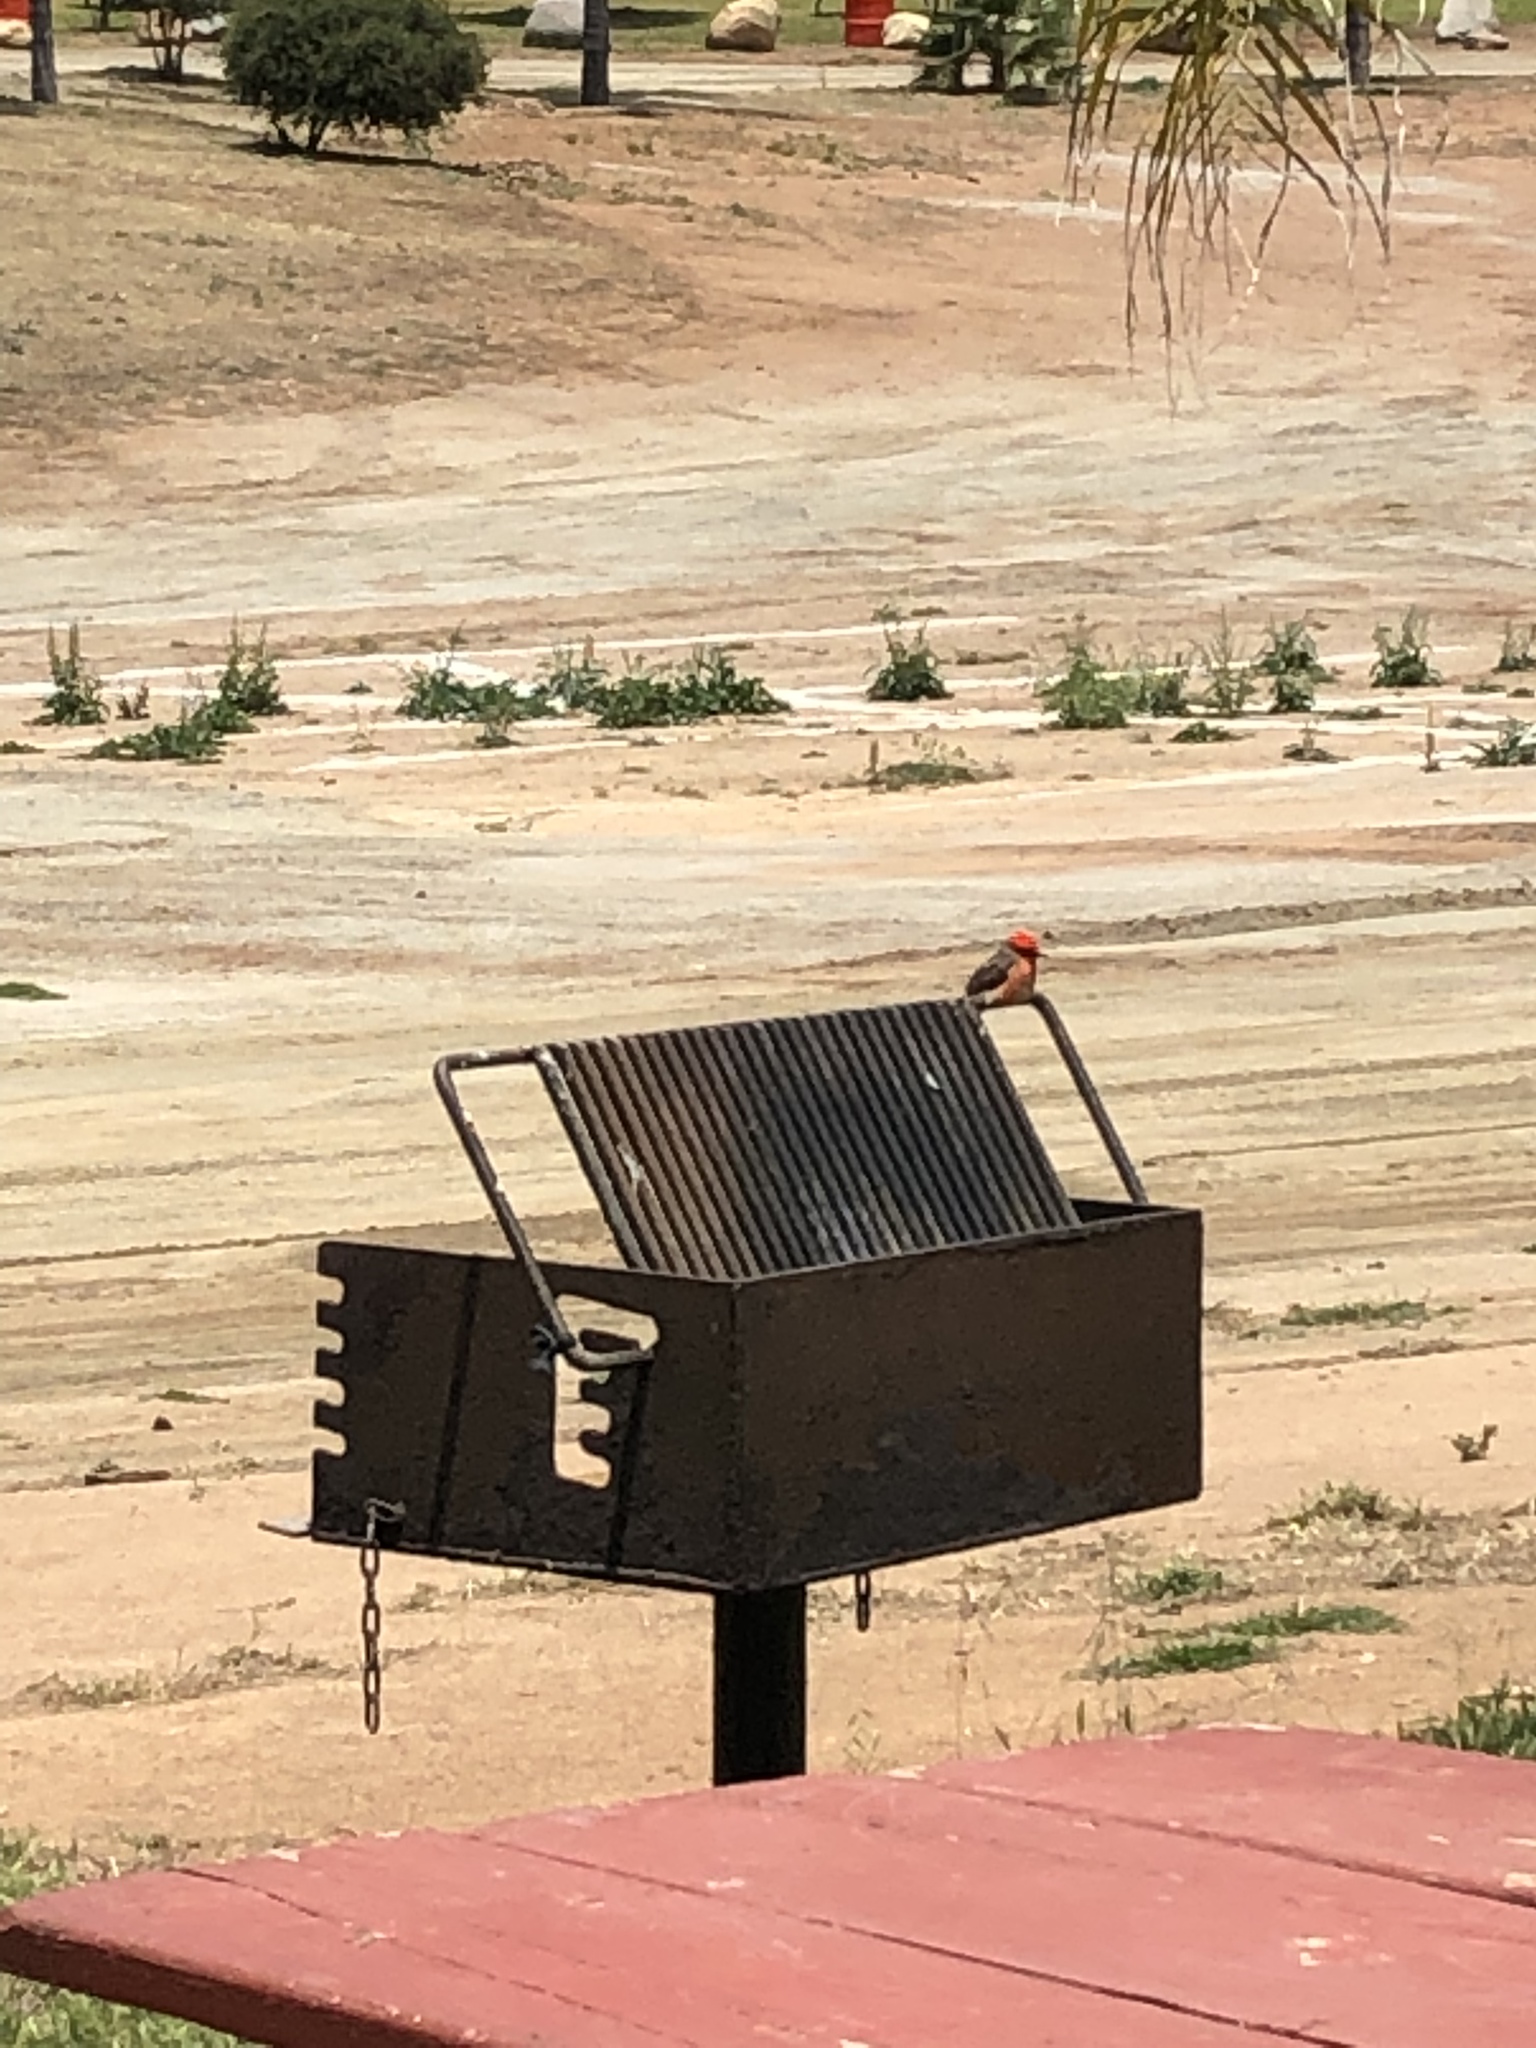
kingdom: Animalia
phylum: Chordata
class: Aves
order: Passeriformes
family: Tyrannidae
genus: Pyrocephalus
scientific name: Pyrocephalus rubinus
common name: Vermilion flycatcher
